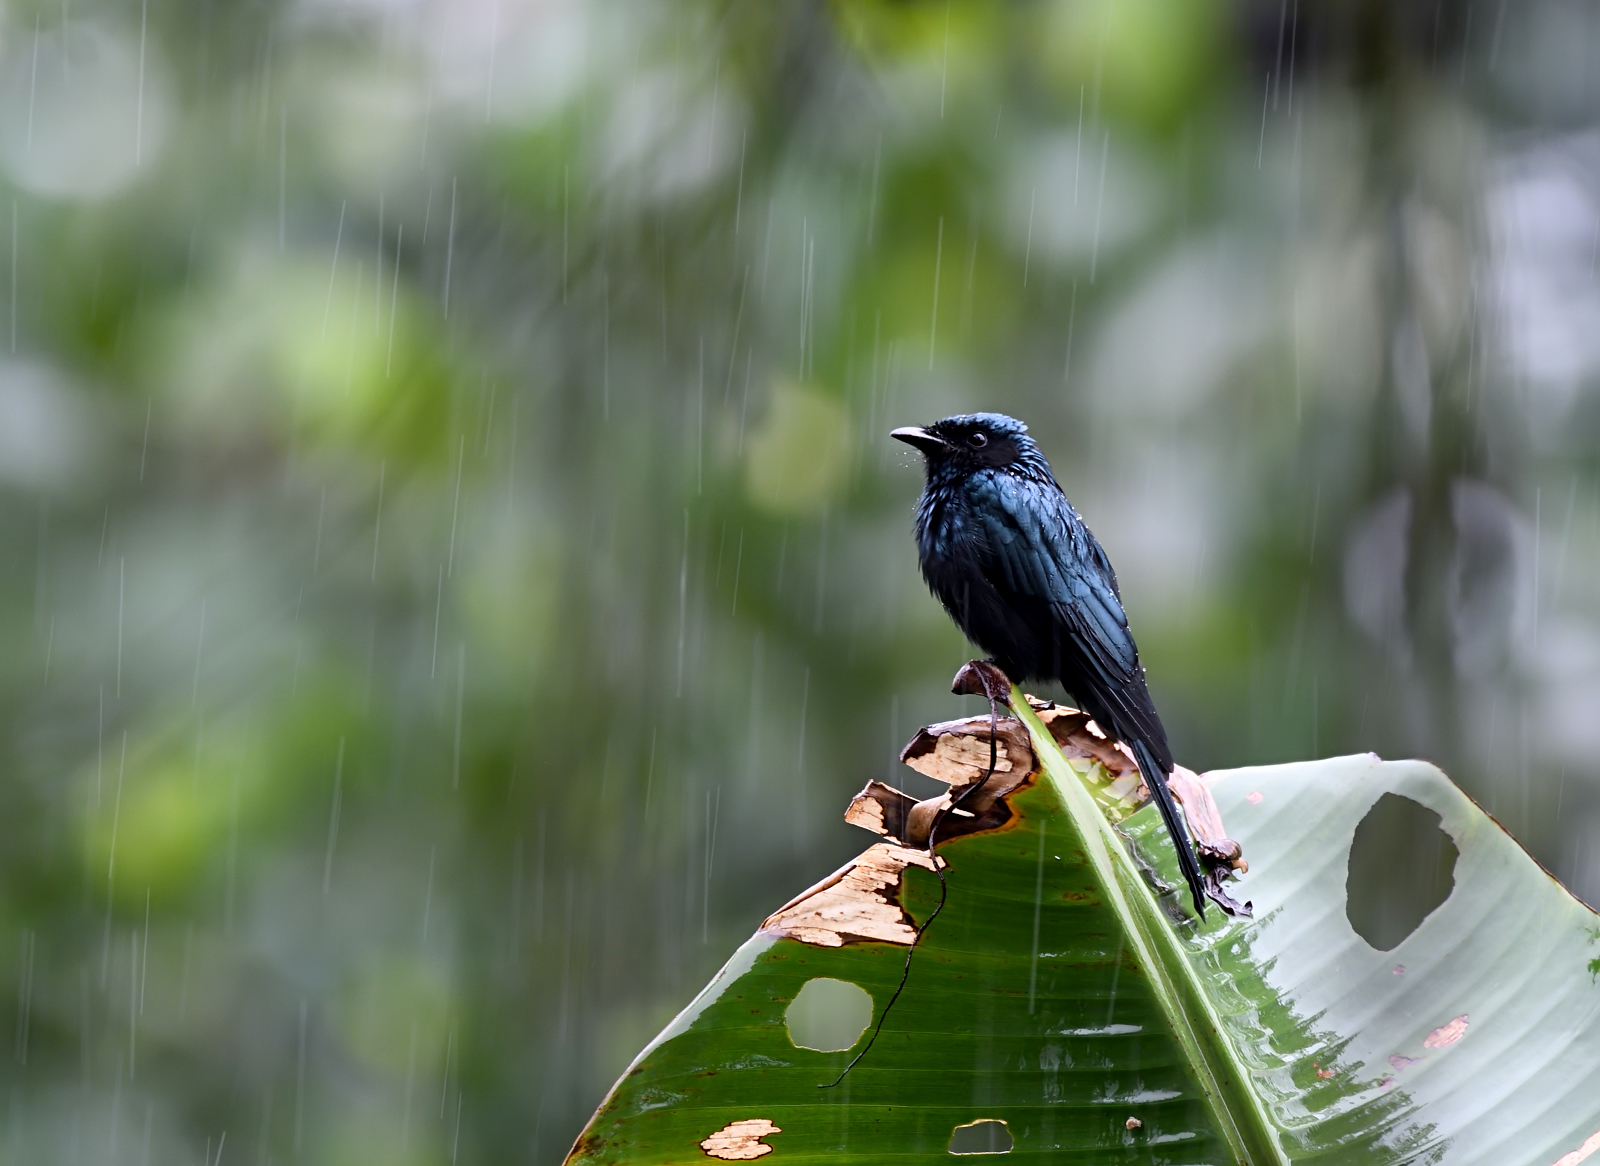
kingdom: Animalia
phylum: Chordata
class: Aves
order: Passeriformes
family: Dicruridae
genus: Dicrurus
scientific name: Dicrurus aeneus
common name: Bronzed drongo
